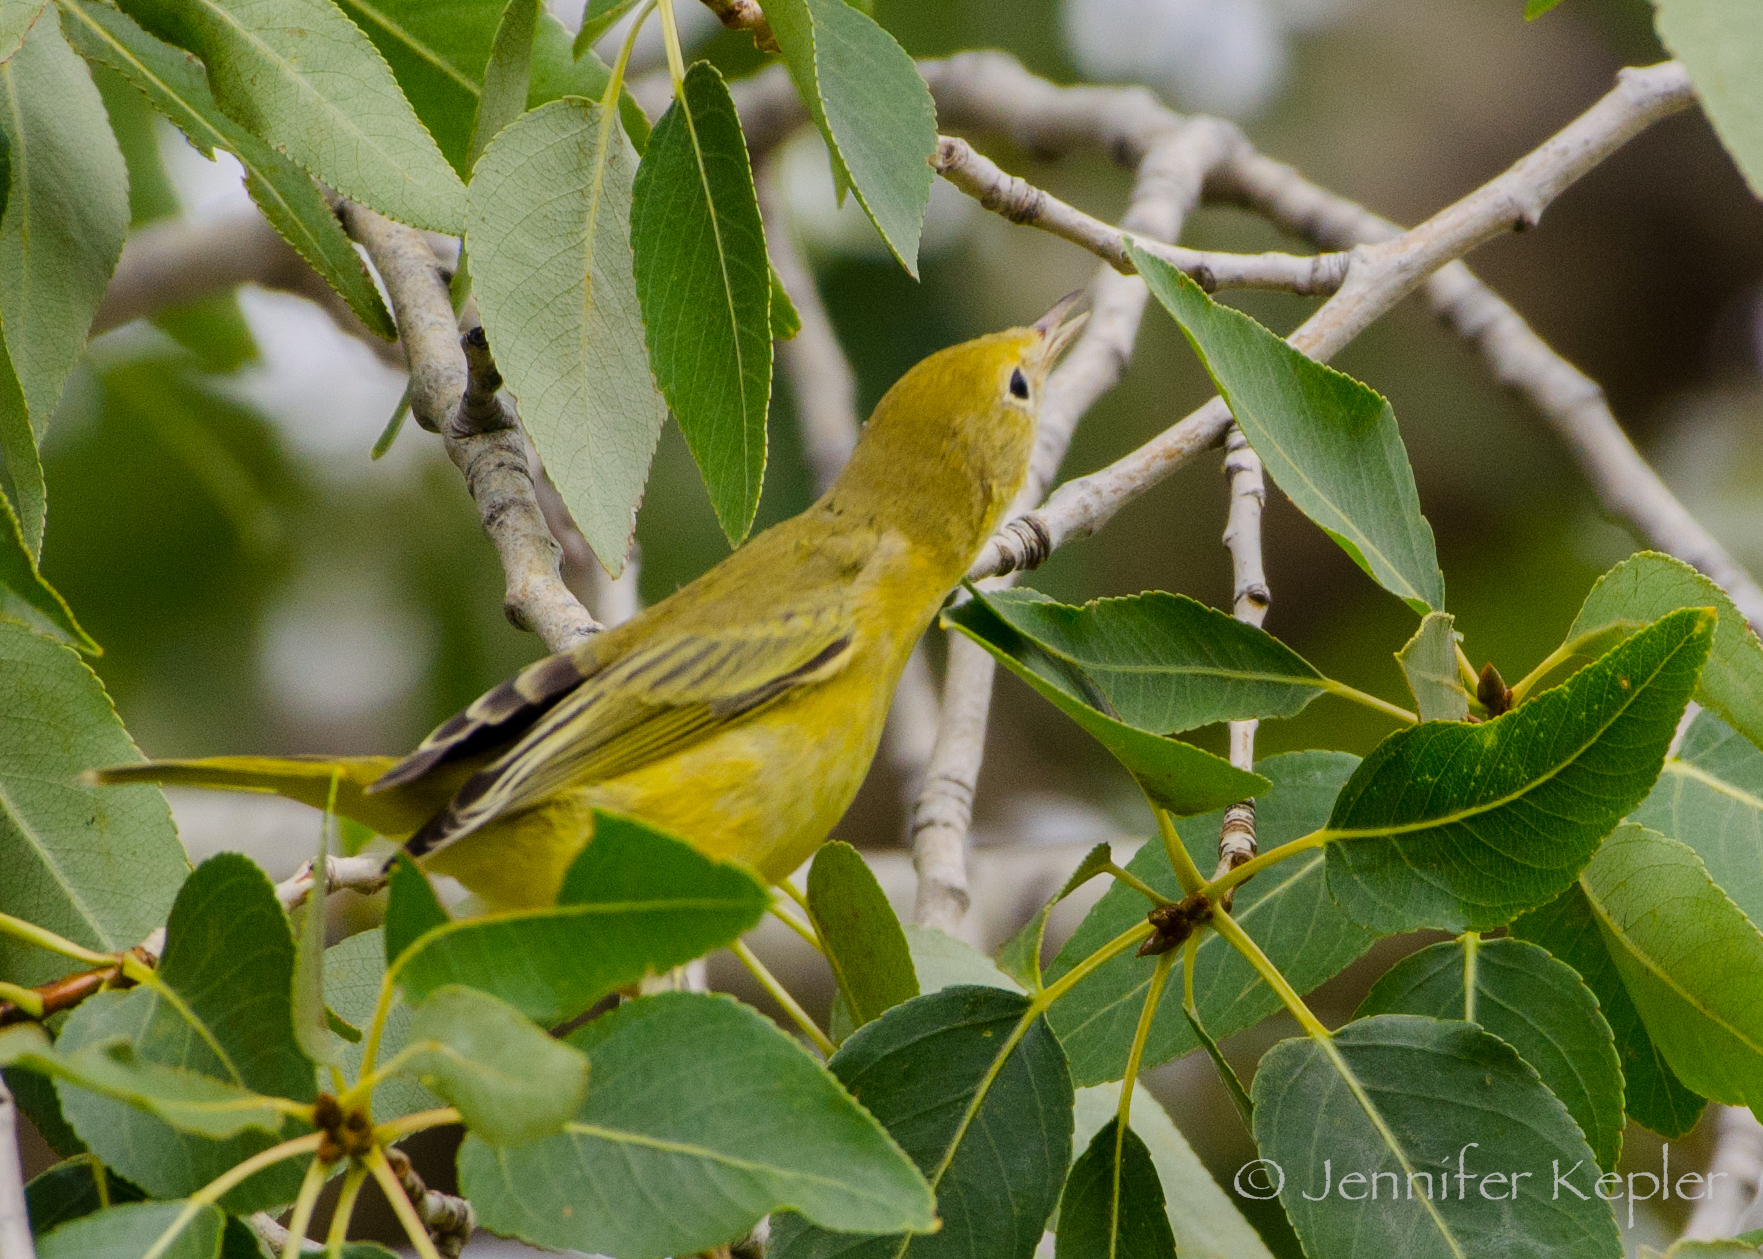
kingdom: Animalia
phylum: Chordata
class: Aves
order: Passeriformes
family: Parulidae
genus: Setophaga
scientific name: Setophaga petechia
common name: Yellow warbler
